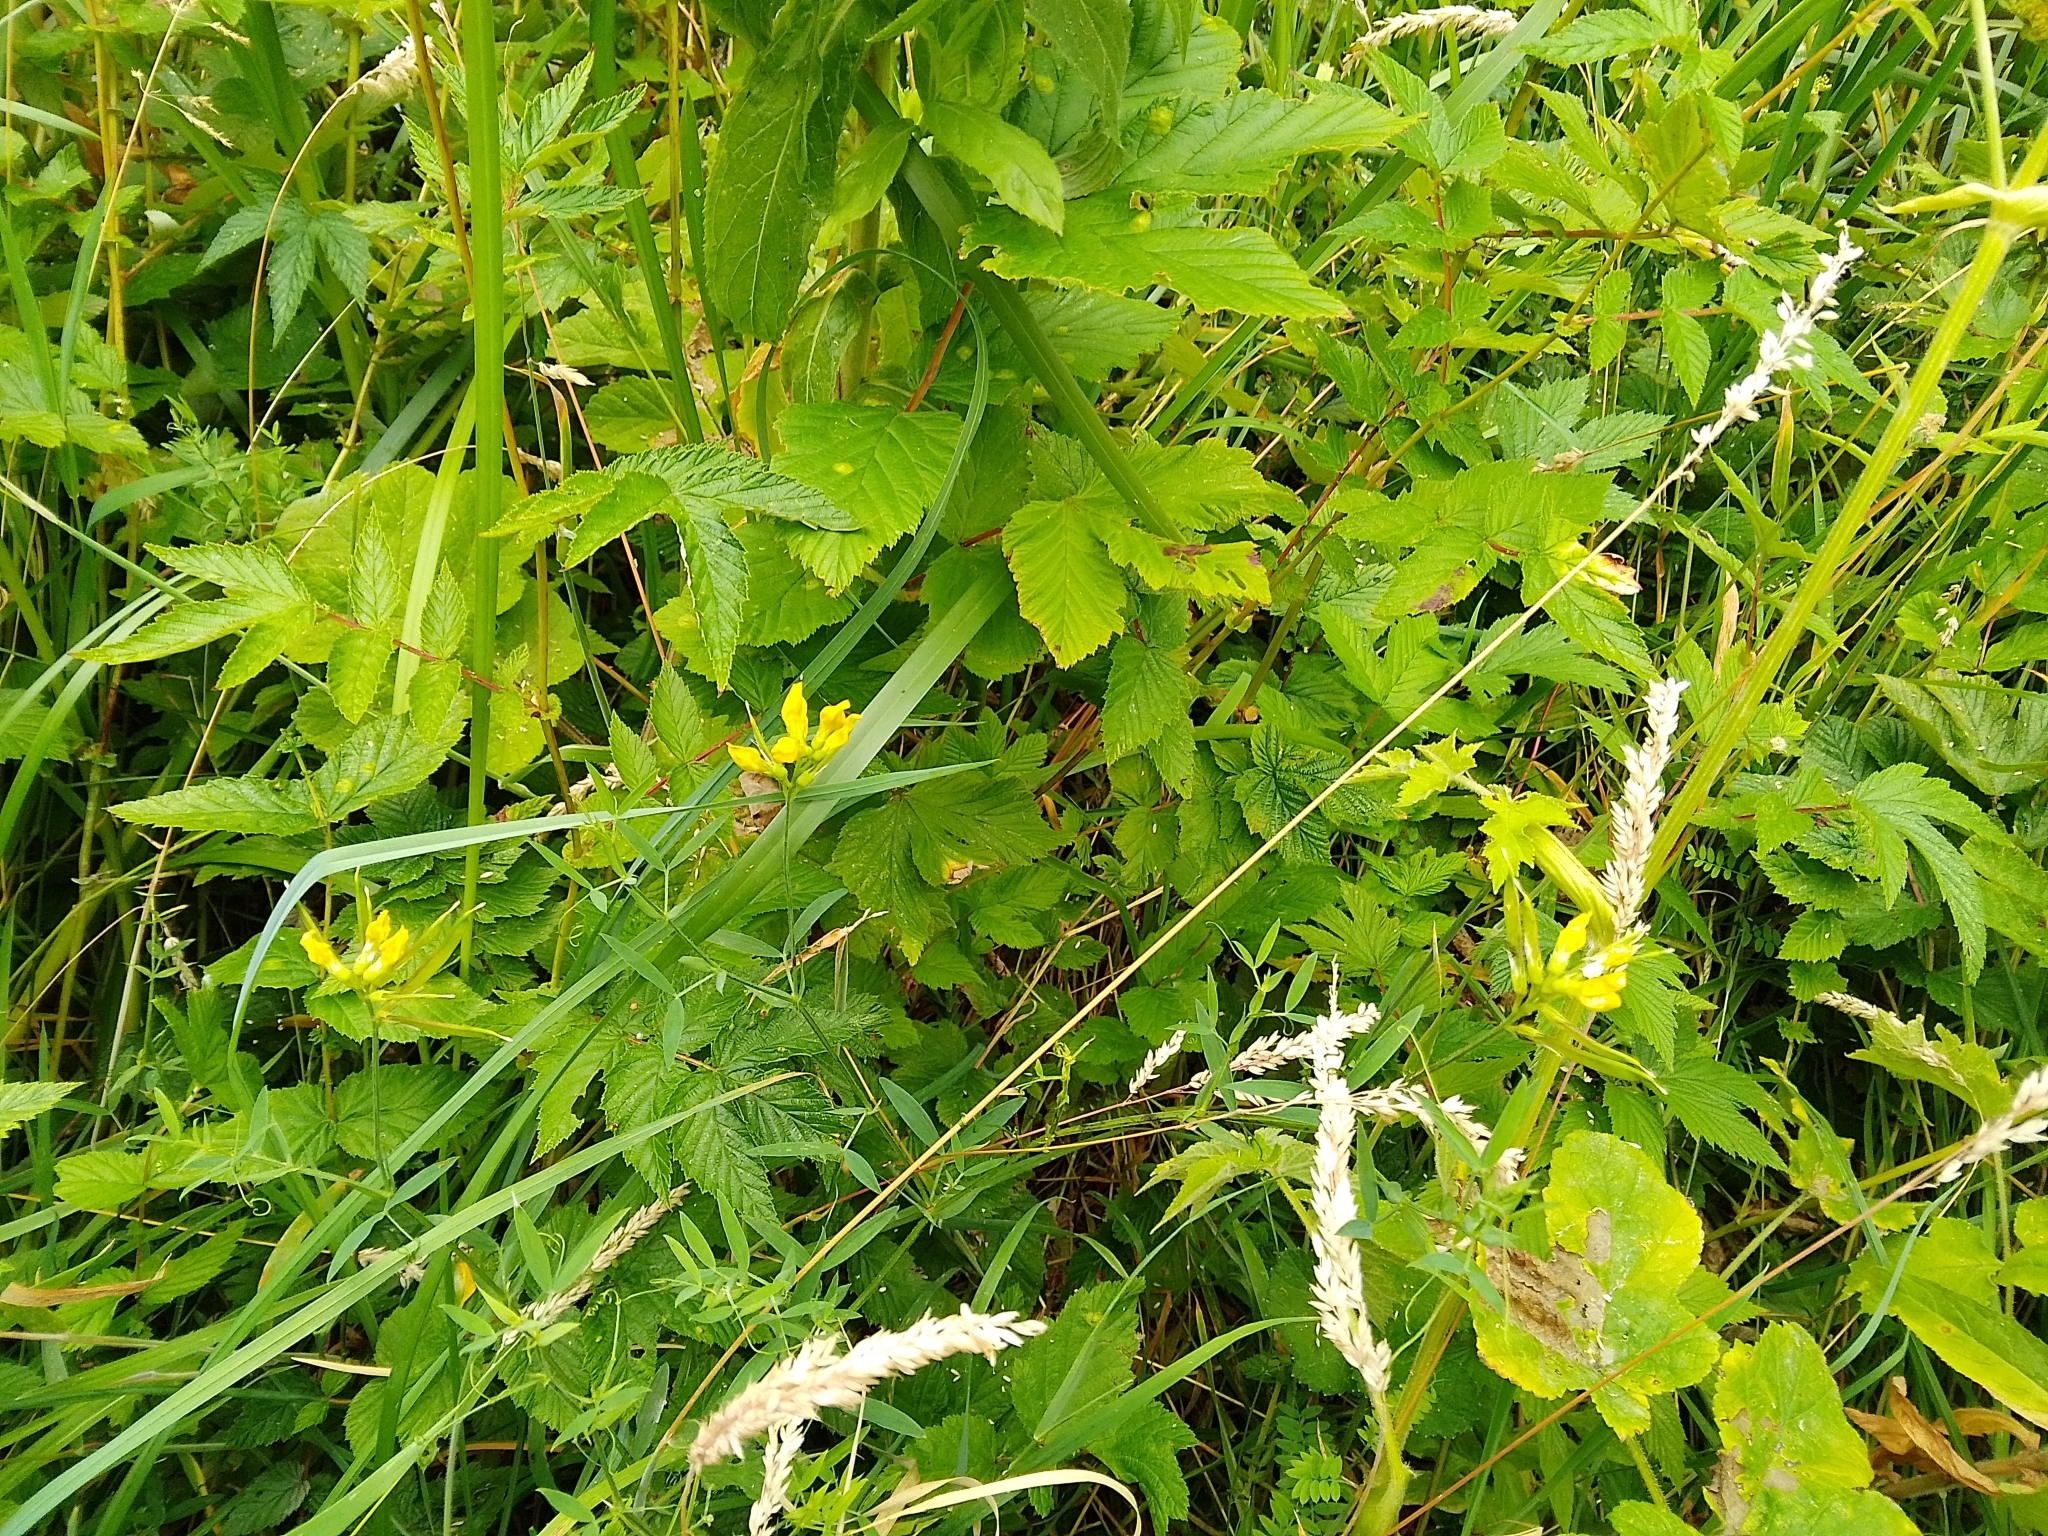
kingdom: Plantae
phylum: Tracheophyta
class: Magnoliopsida
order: Fabales
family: Fabaceae
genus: Lathyrus
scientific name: Lathyrus pratensis
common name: Meadow vetchling
